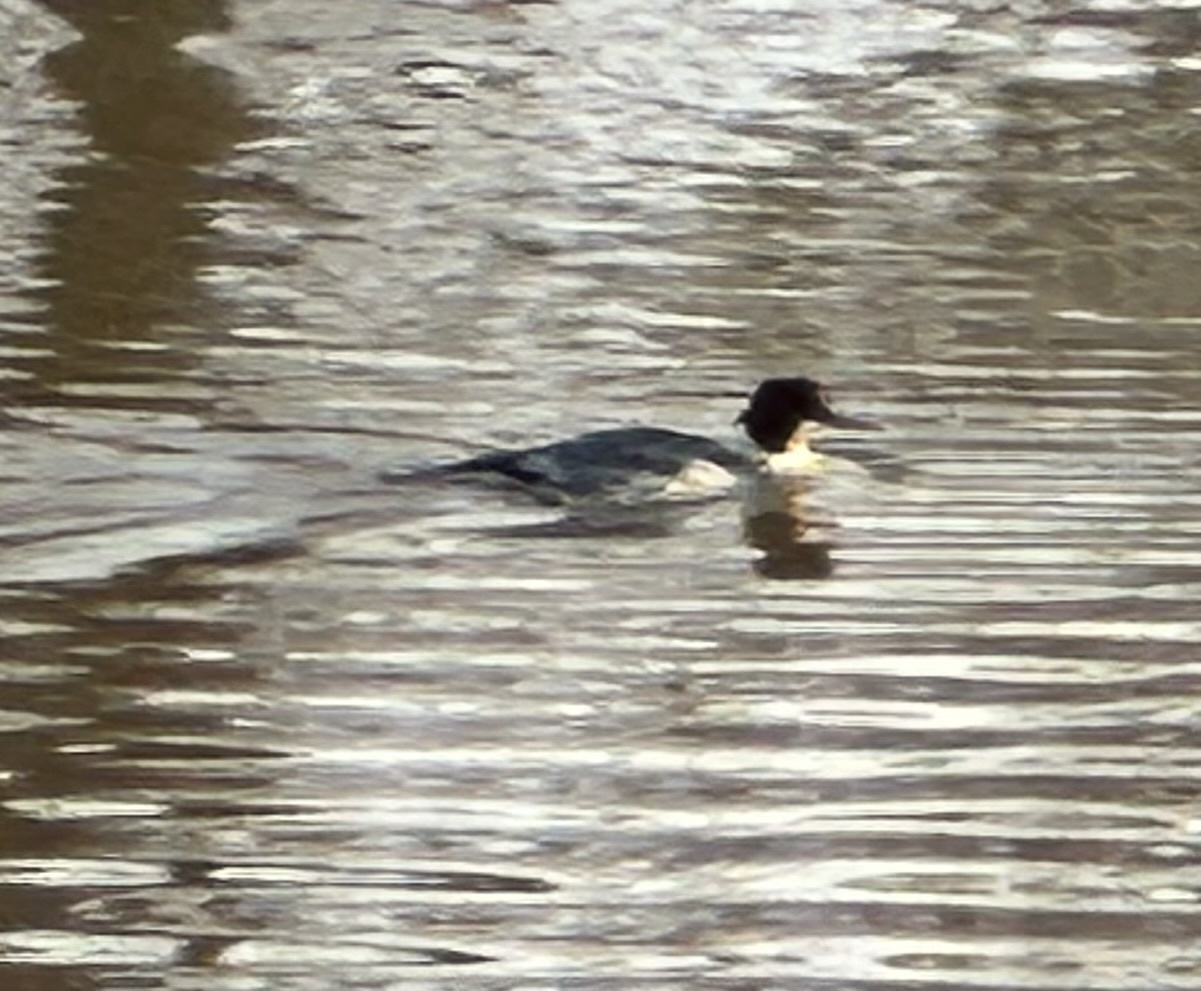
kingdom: Animalia
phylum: Chordata
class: Aves
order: Anseriformes
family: Anatidae
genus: Mergus
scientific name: Mergus merganser
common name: Common merganser
